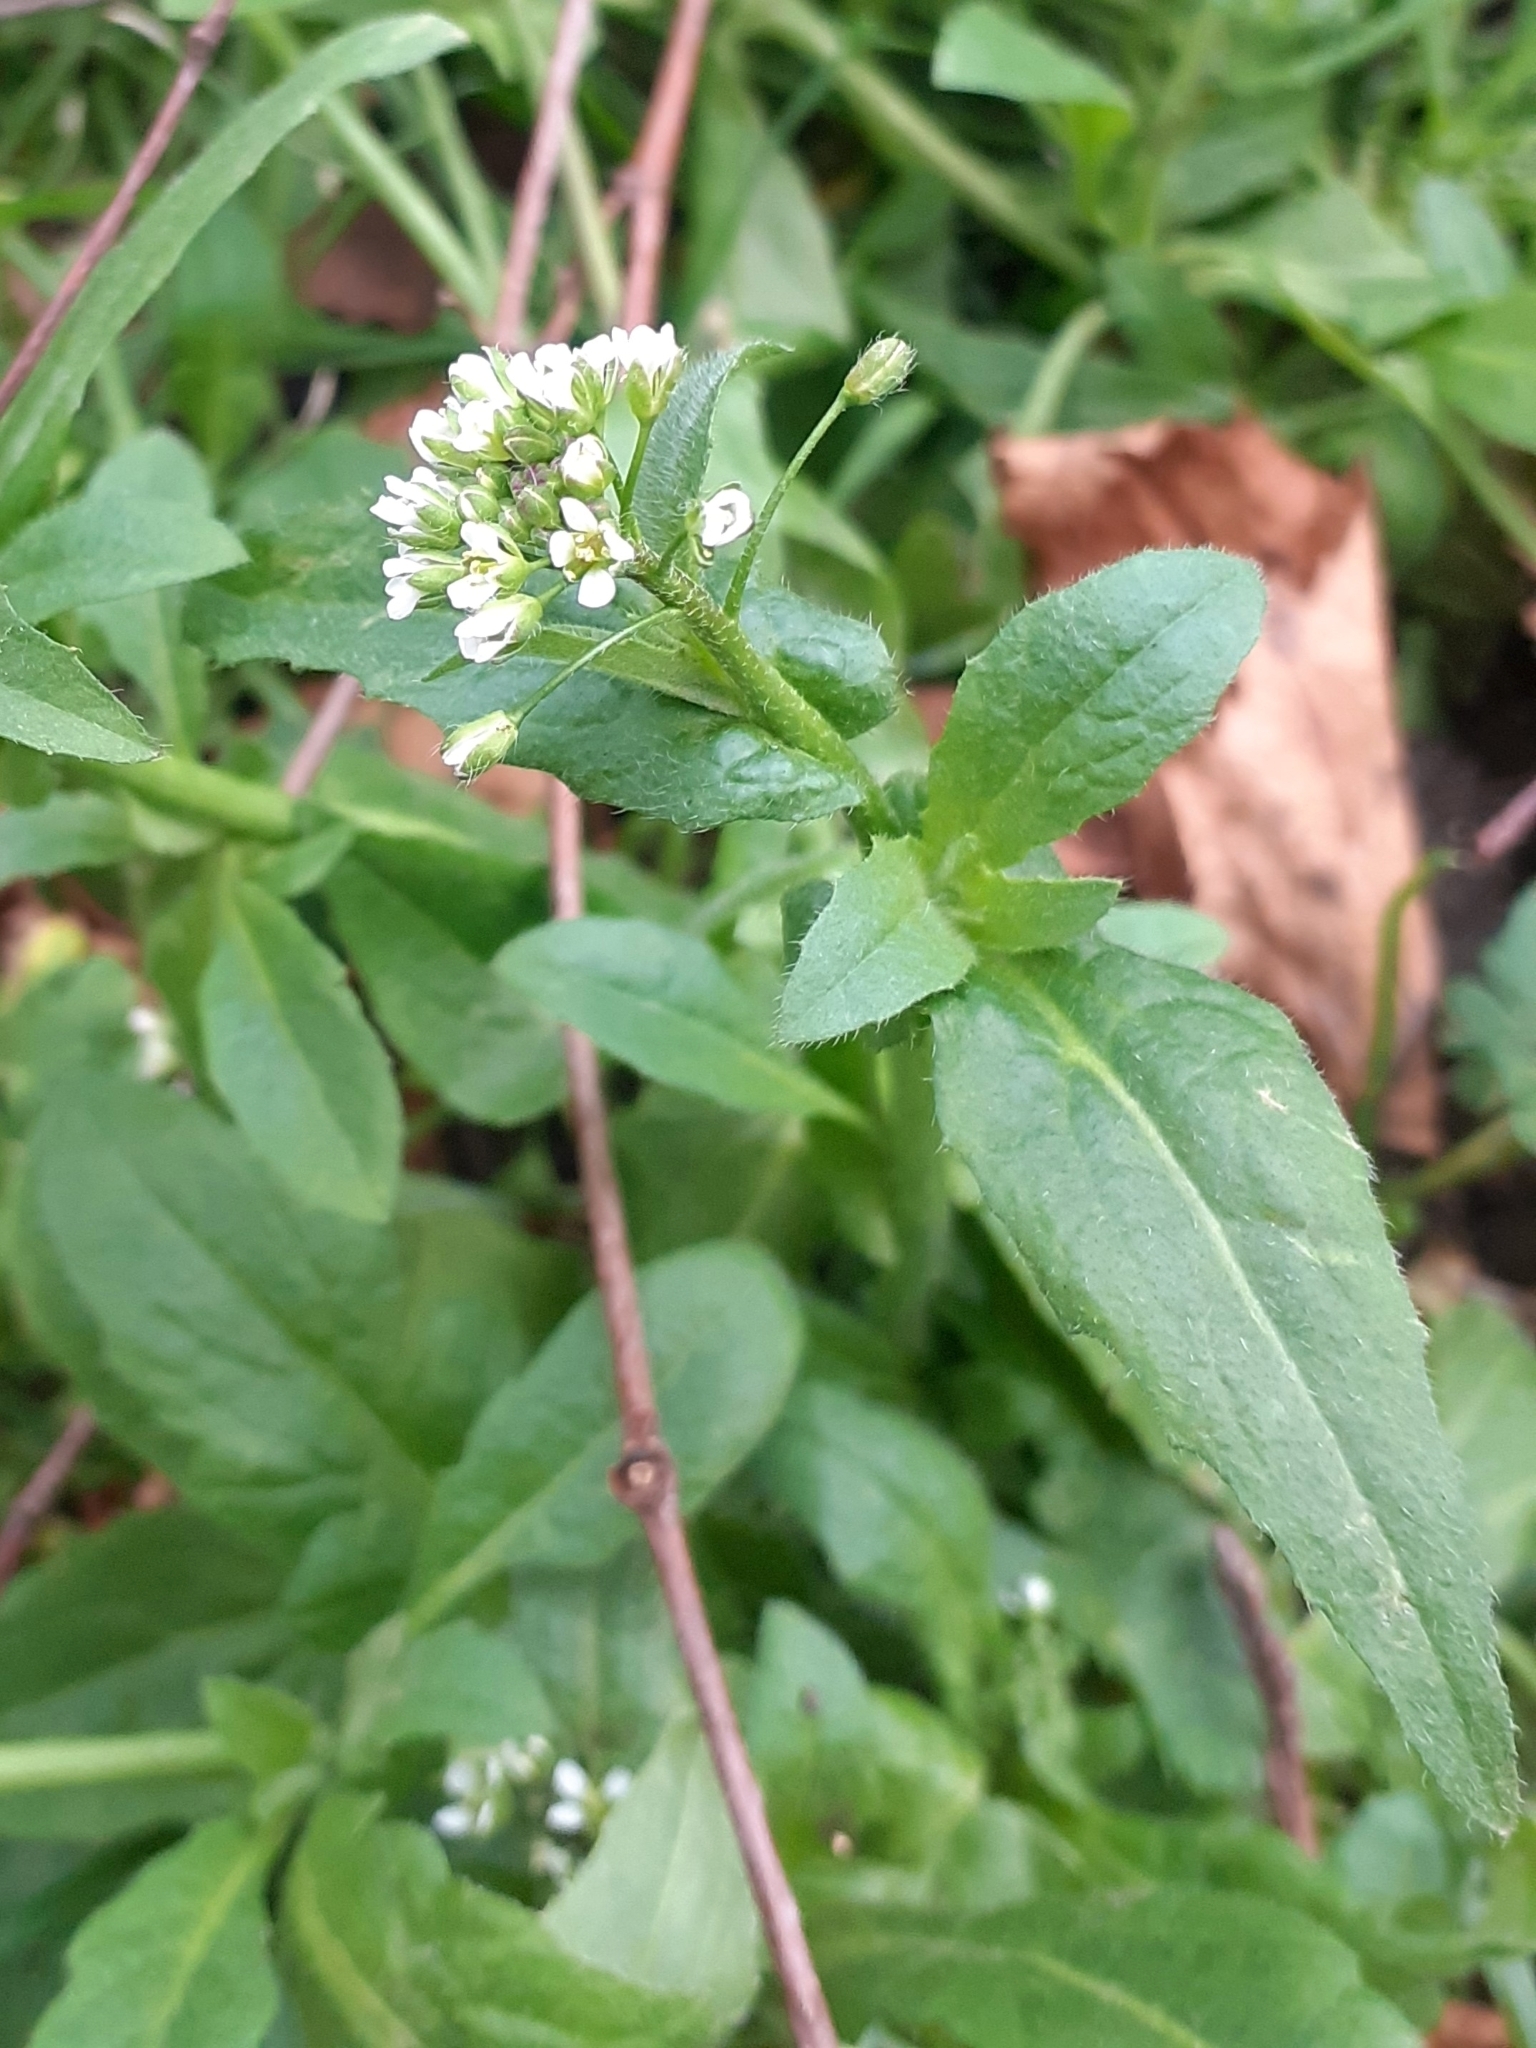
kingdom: Plantae
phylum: Tracheophyta
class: Magnoliopsida
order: Brassicales
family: Brassicaceae
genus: Capsella
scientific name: Capsella bursa-pastoris
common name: Shepherd's purse
